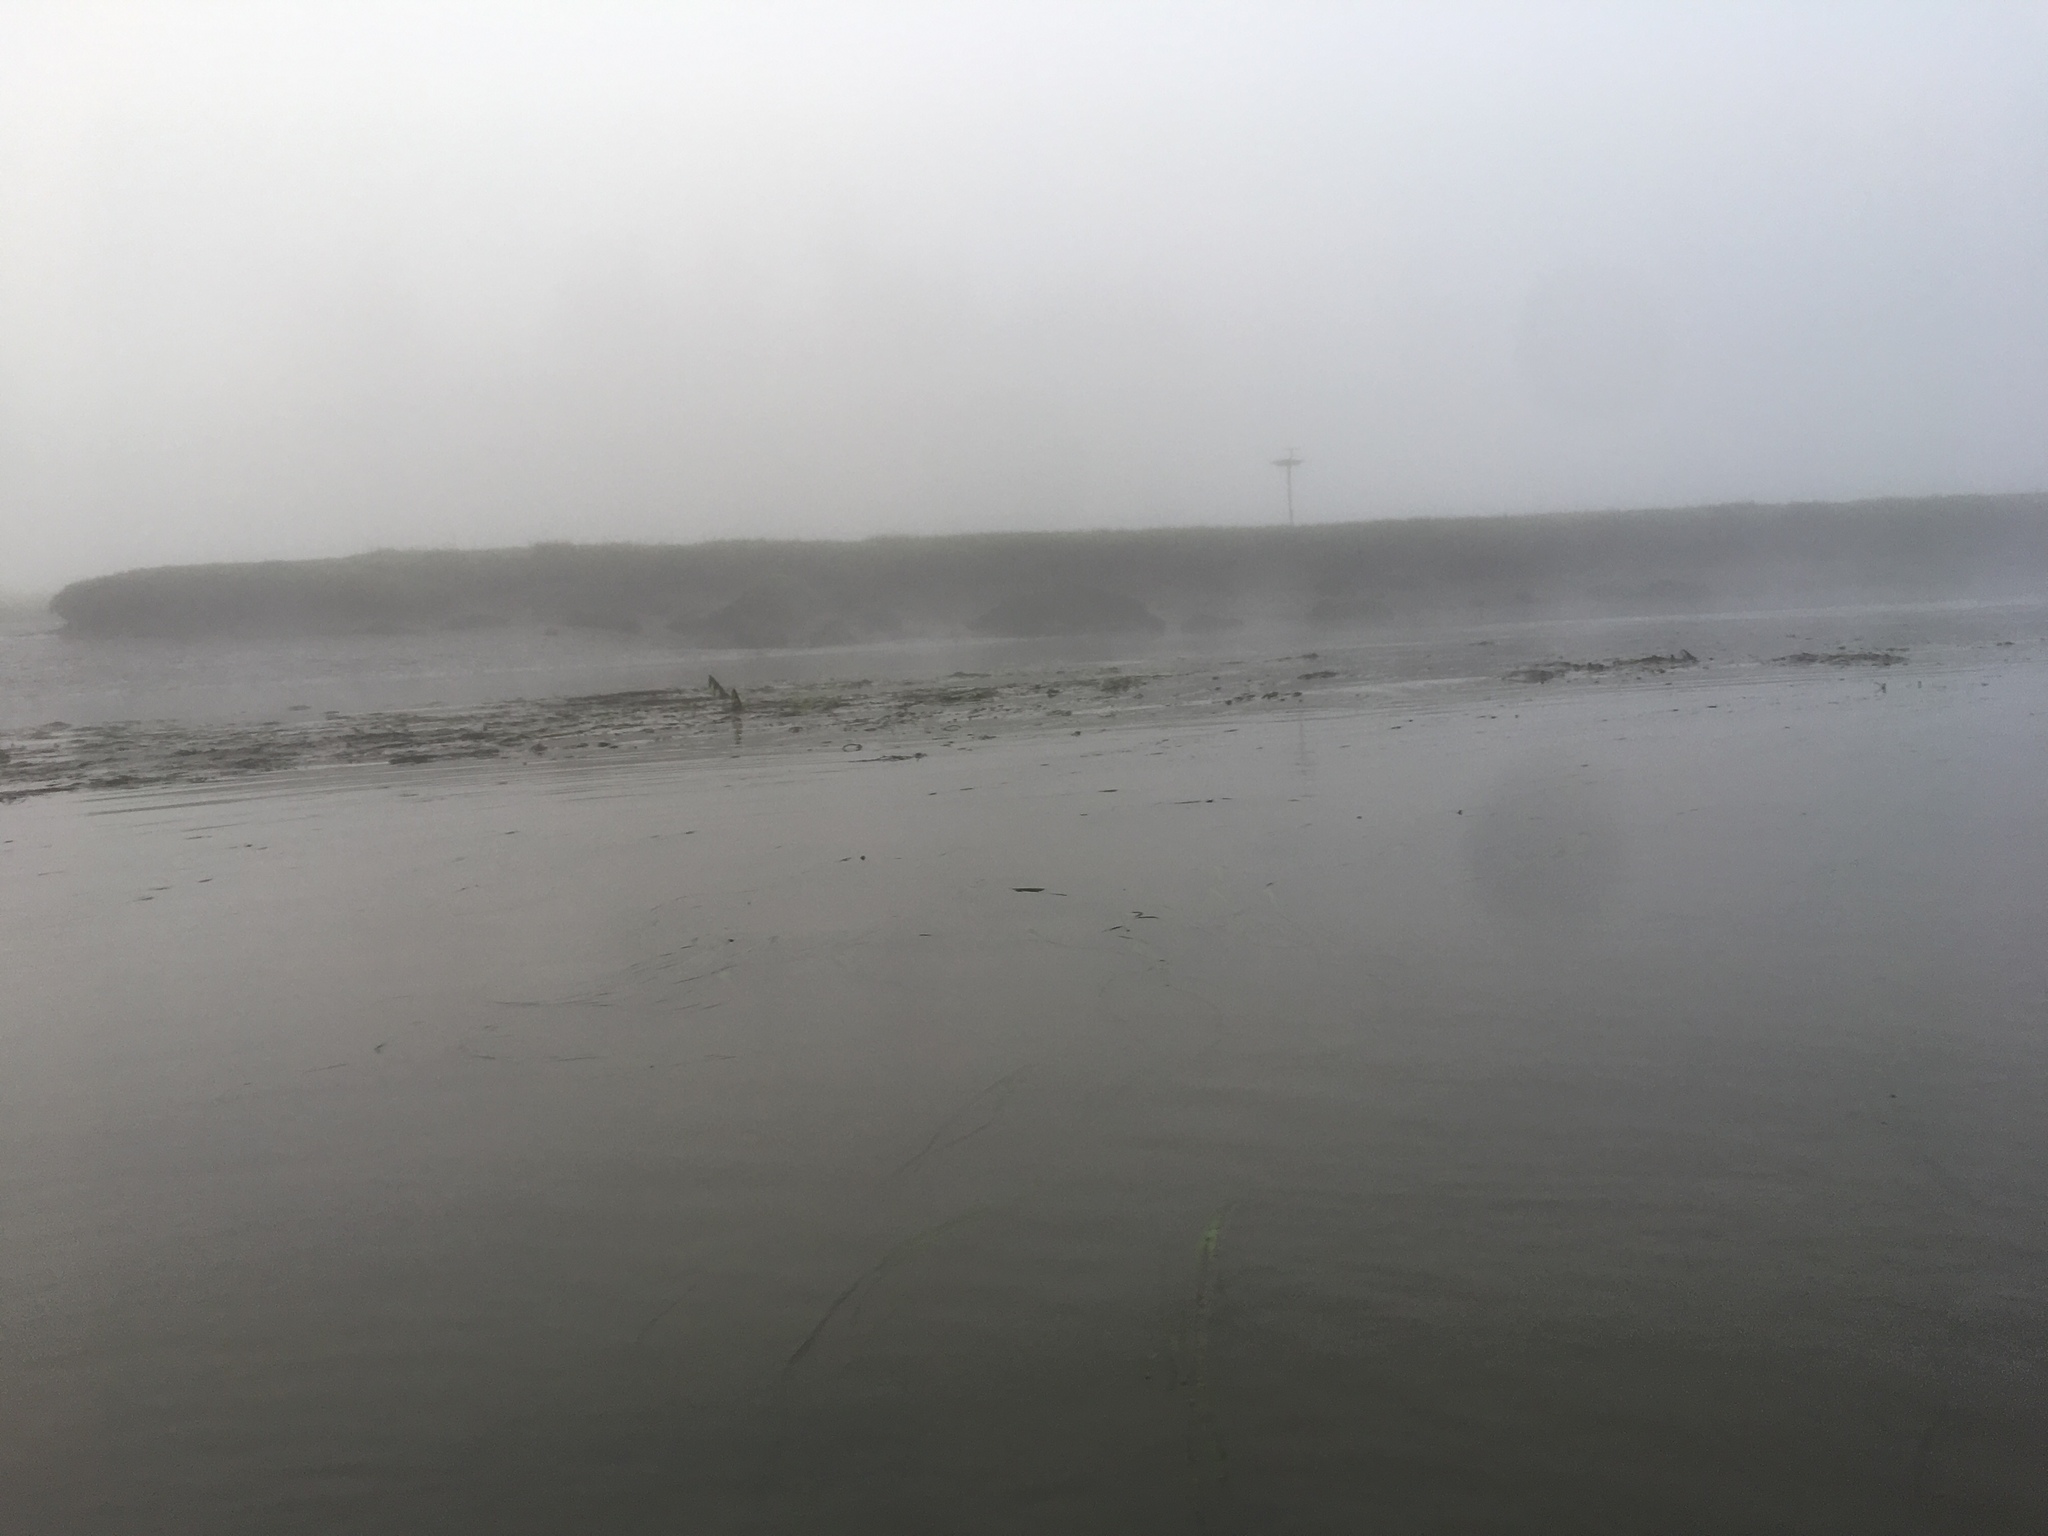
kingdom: Plantae
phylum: Tracheophyta
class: Liliopsida
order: Alismatales
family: Zosteraceae
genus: Zostera
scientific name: Zostera marina
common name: Eelgrass
